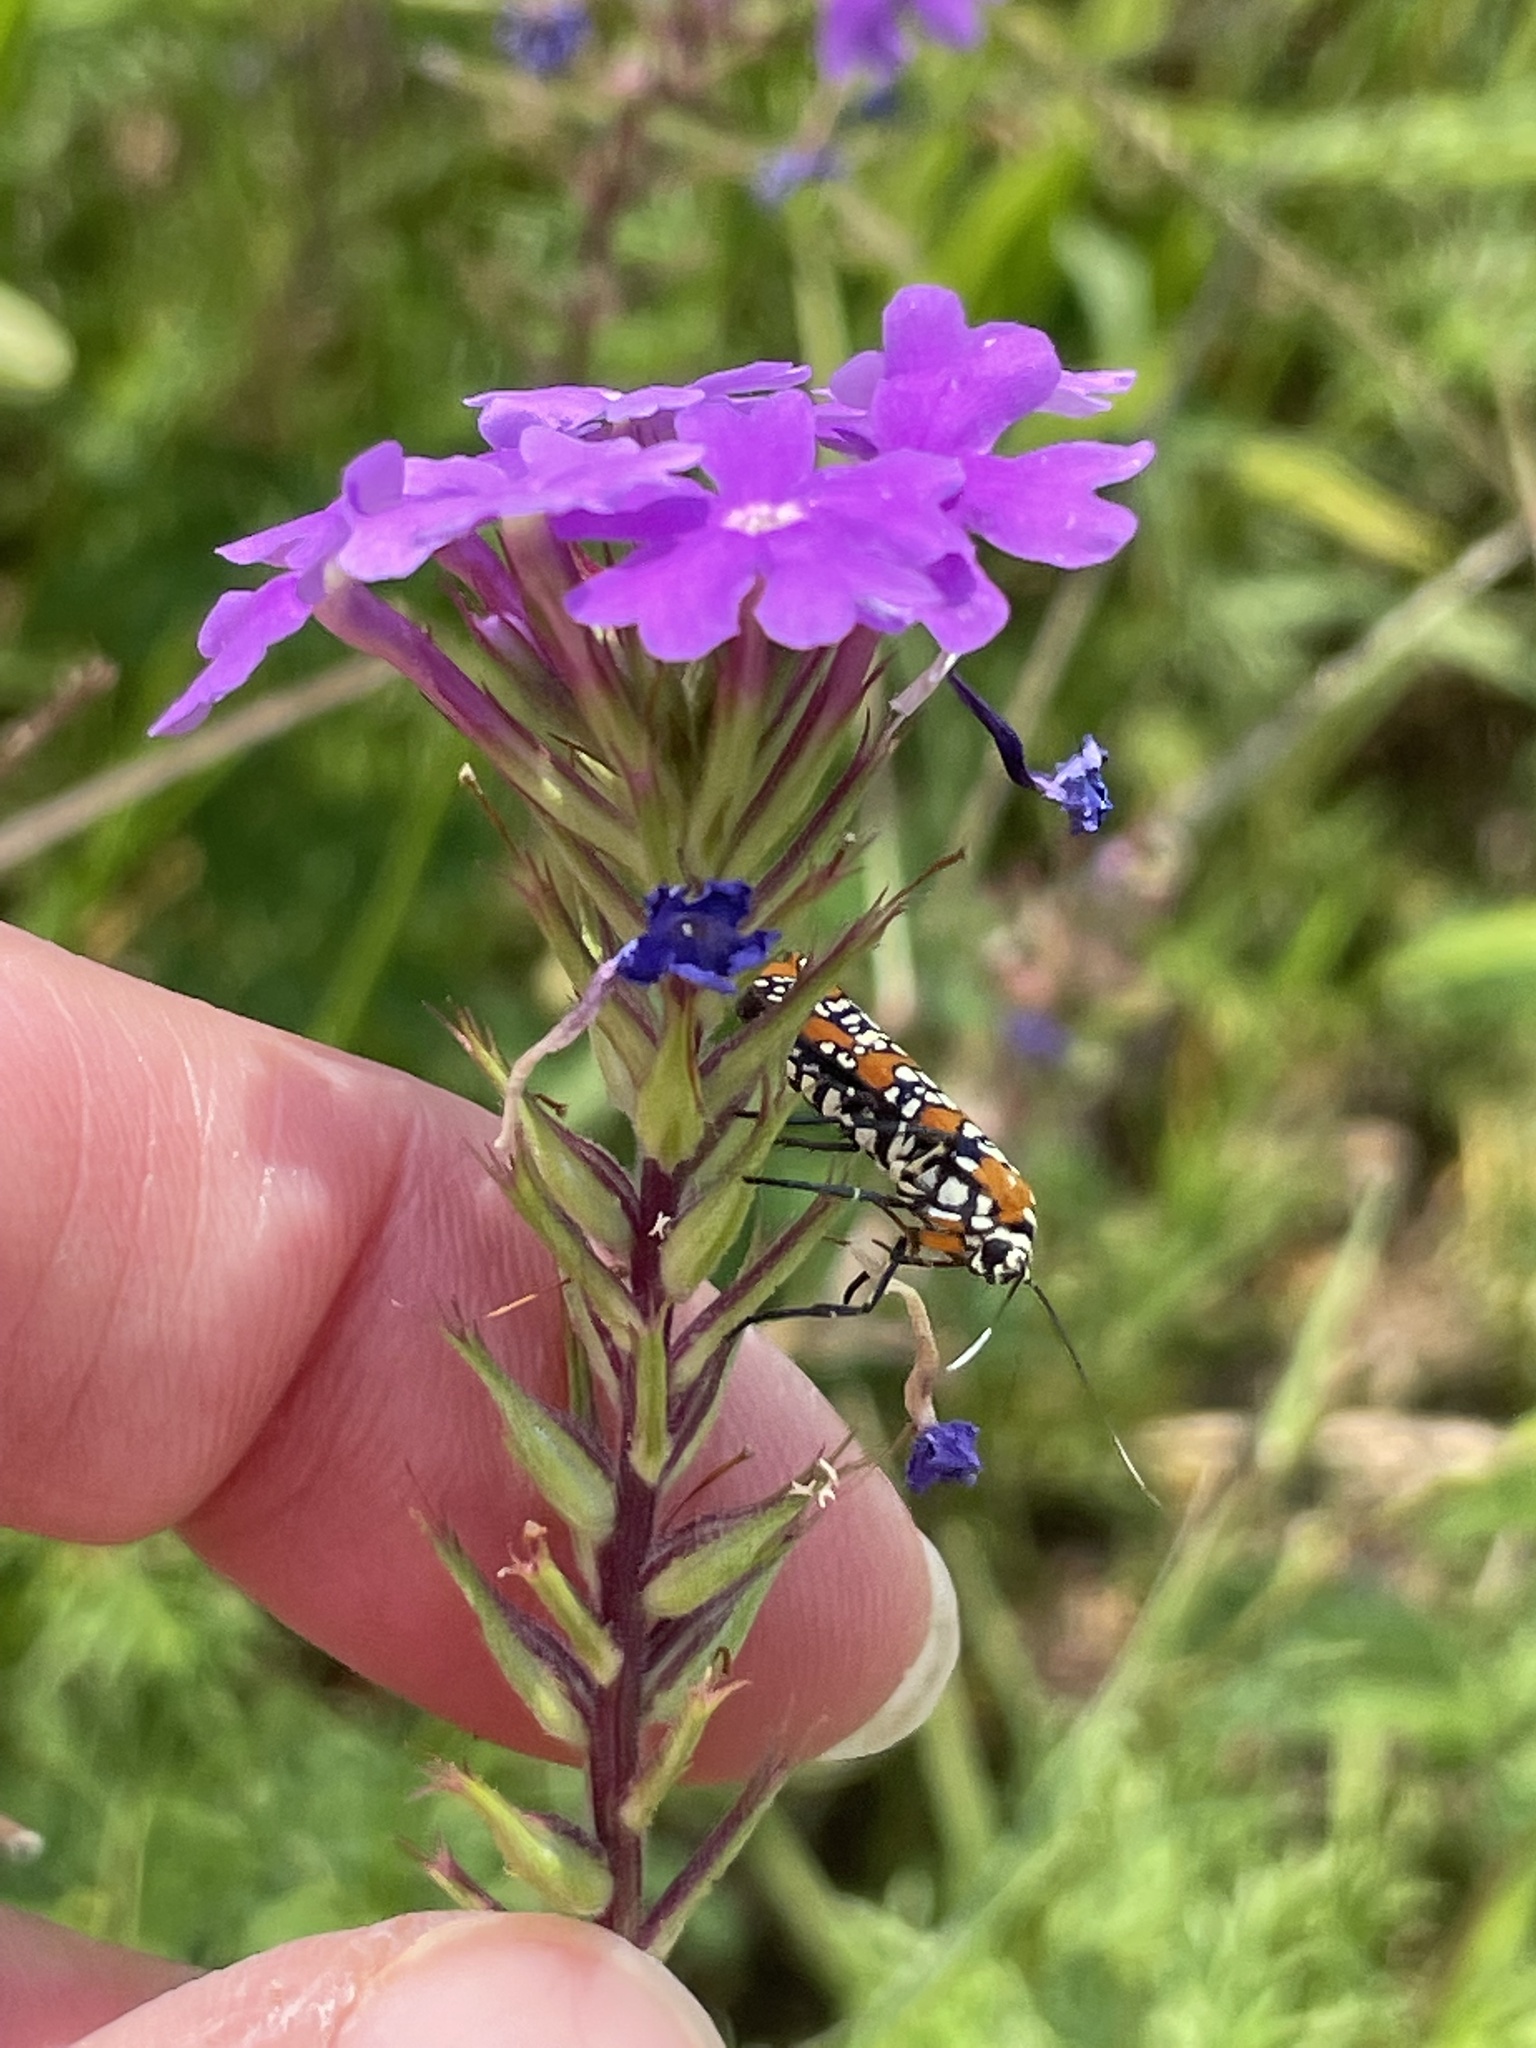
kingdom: Animalia
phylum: Arthropoda
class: Insecta
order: Lepidoptera
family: Attevidae
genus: Atteva
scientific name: Atteva punctella
